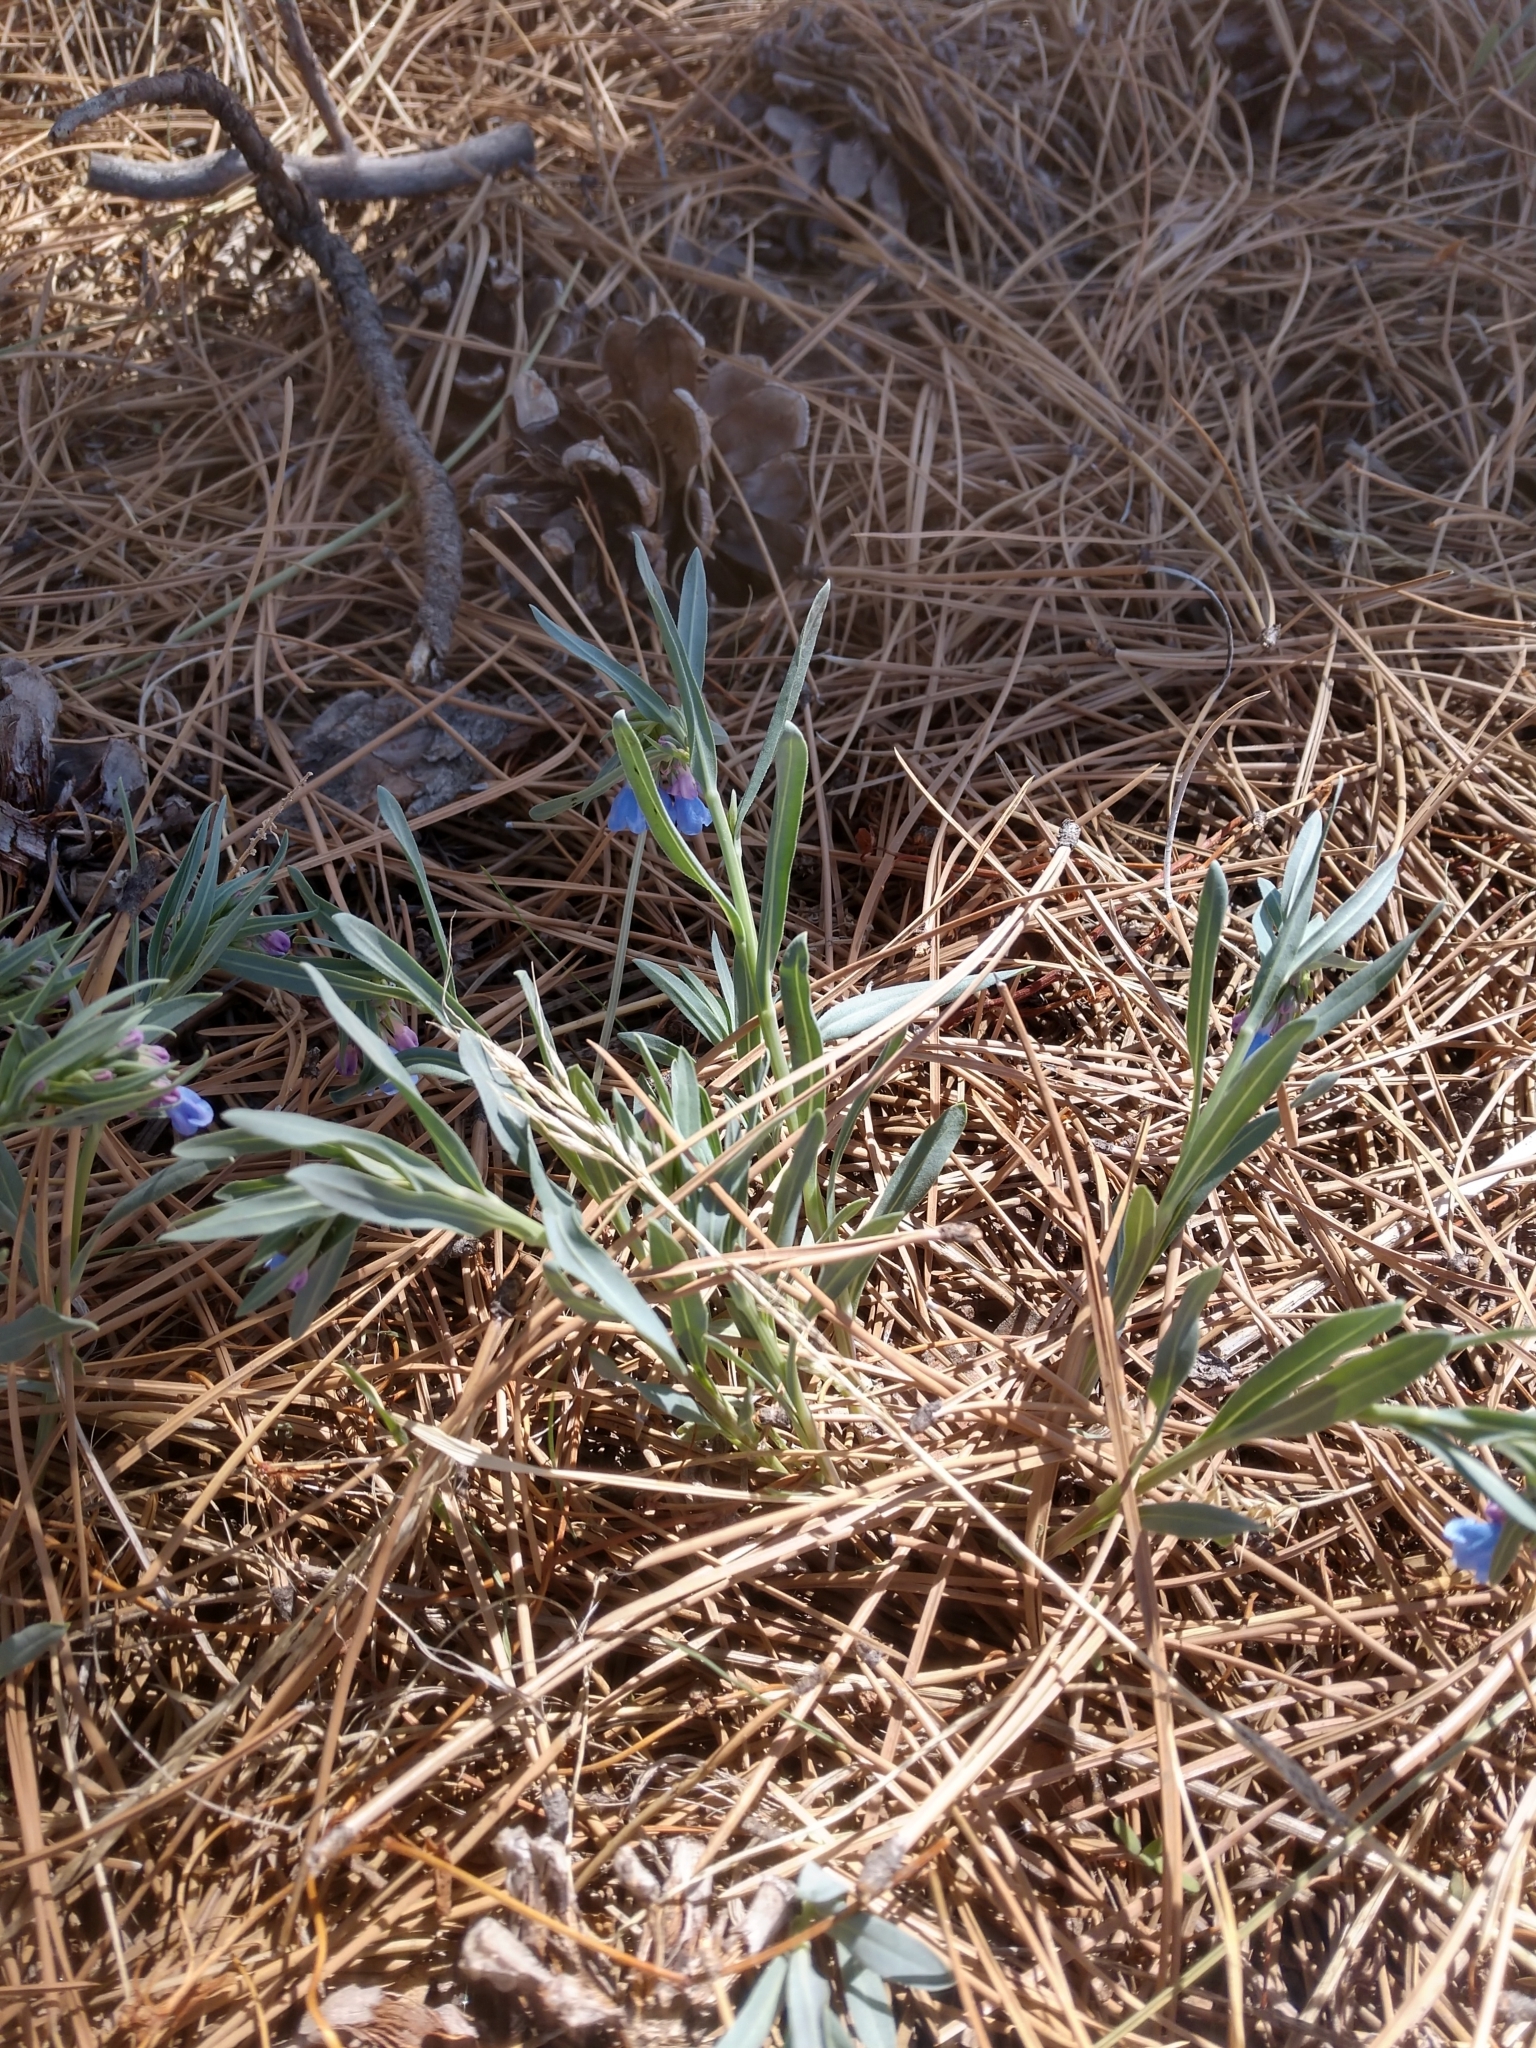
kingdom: Plantae
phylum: Tracheophyta
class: Magnoliopsida
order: Boraginales
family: Boraginaceae
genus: Mertensia
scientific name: Mertensia lanceolata
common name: Lance-leaved bluebells
